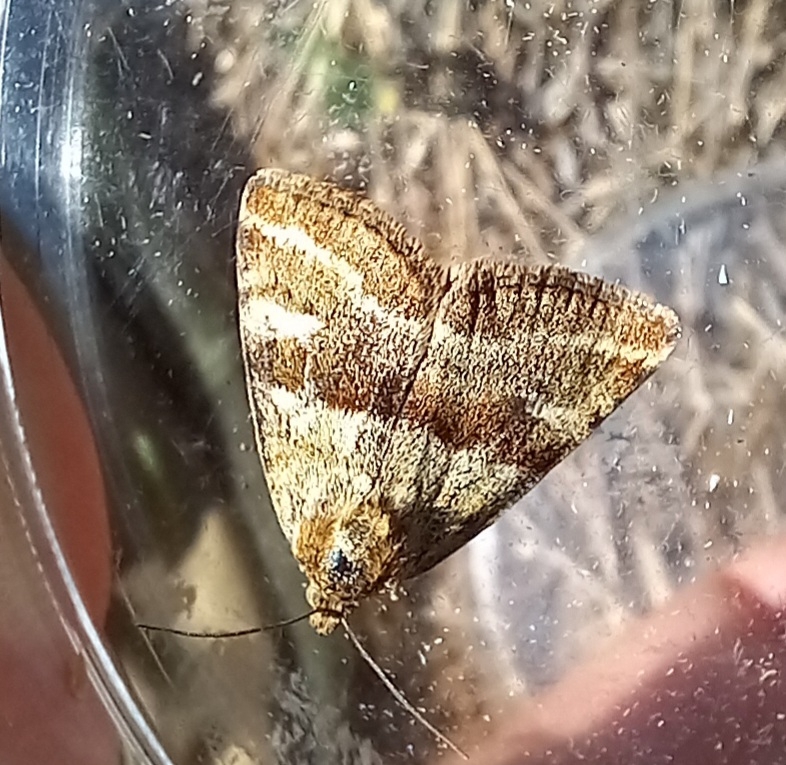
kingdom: Animalia
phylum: Arthropoda
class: Insecta
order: Lepidoptera
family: Noctuidae
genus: Synthymia
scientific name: Synthymia fixa
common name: Goldwing
